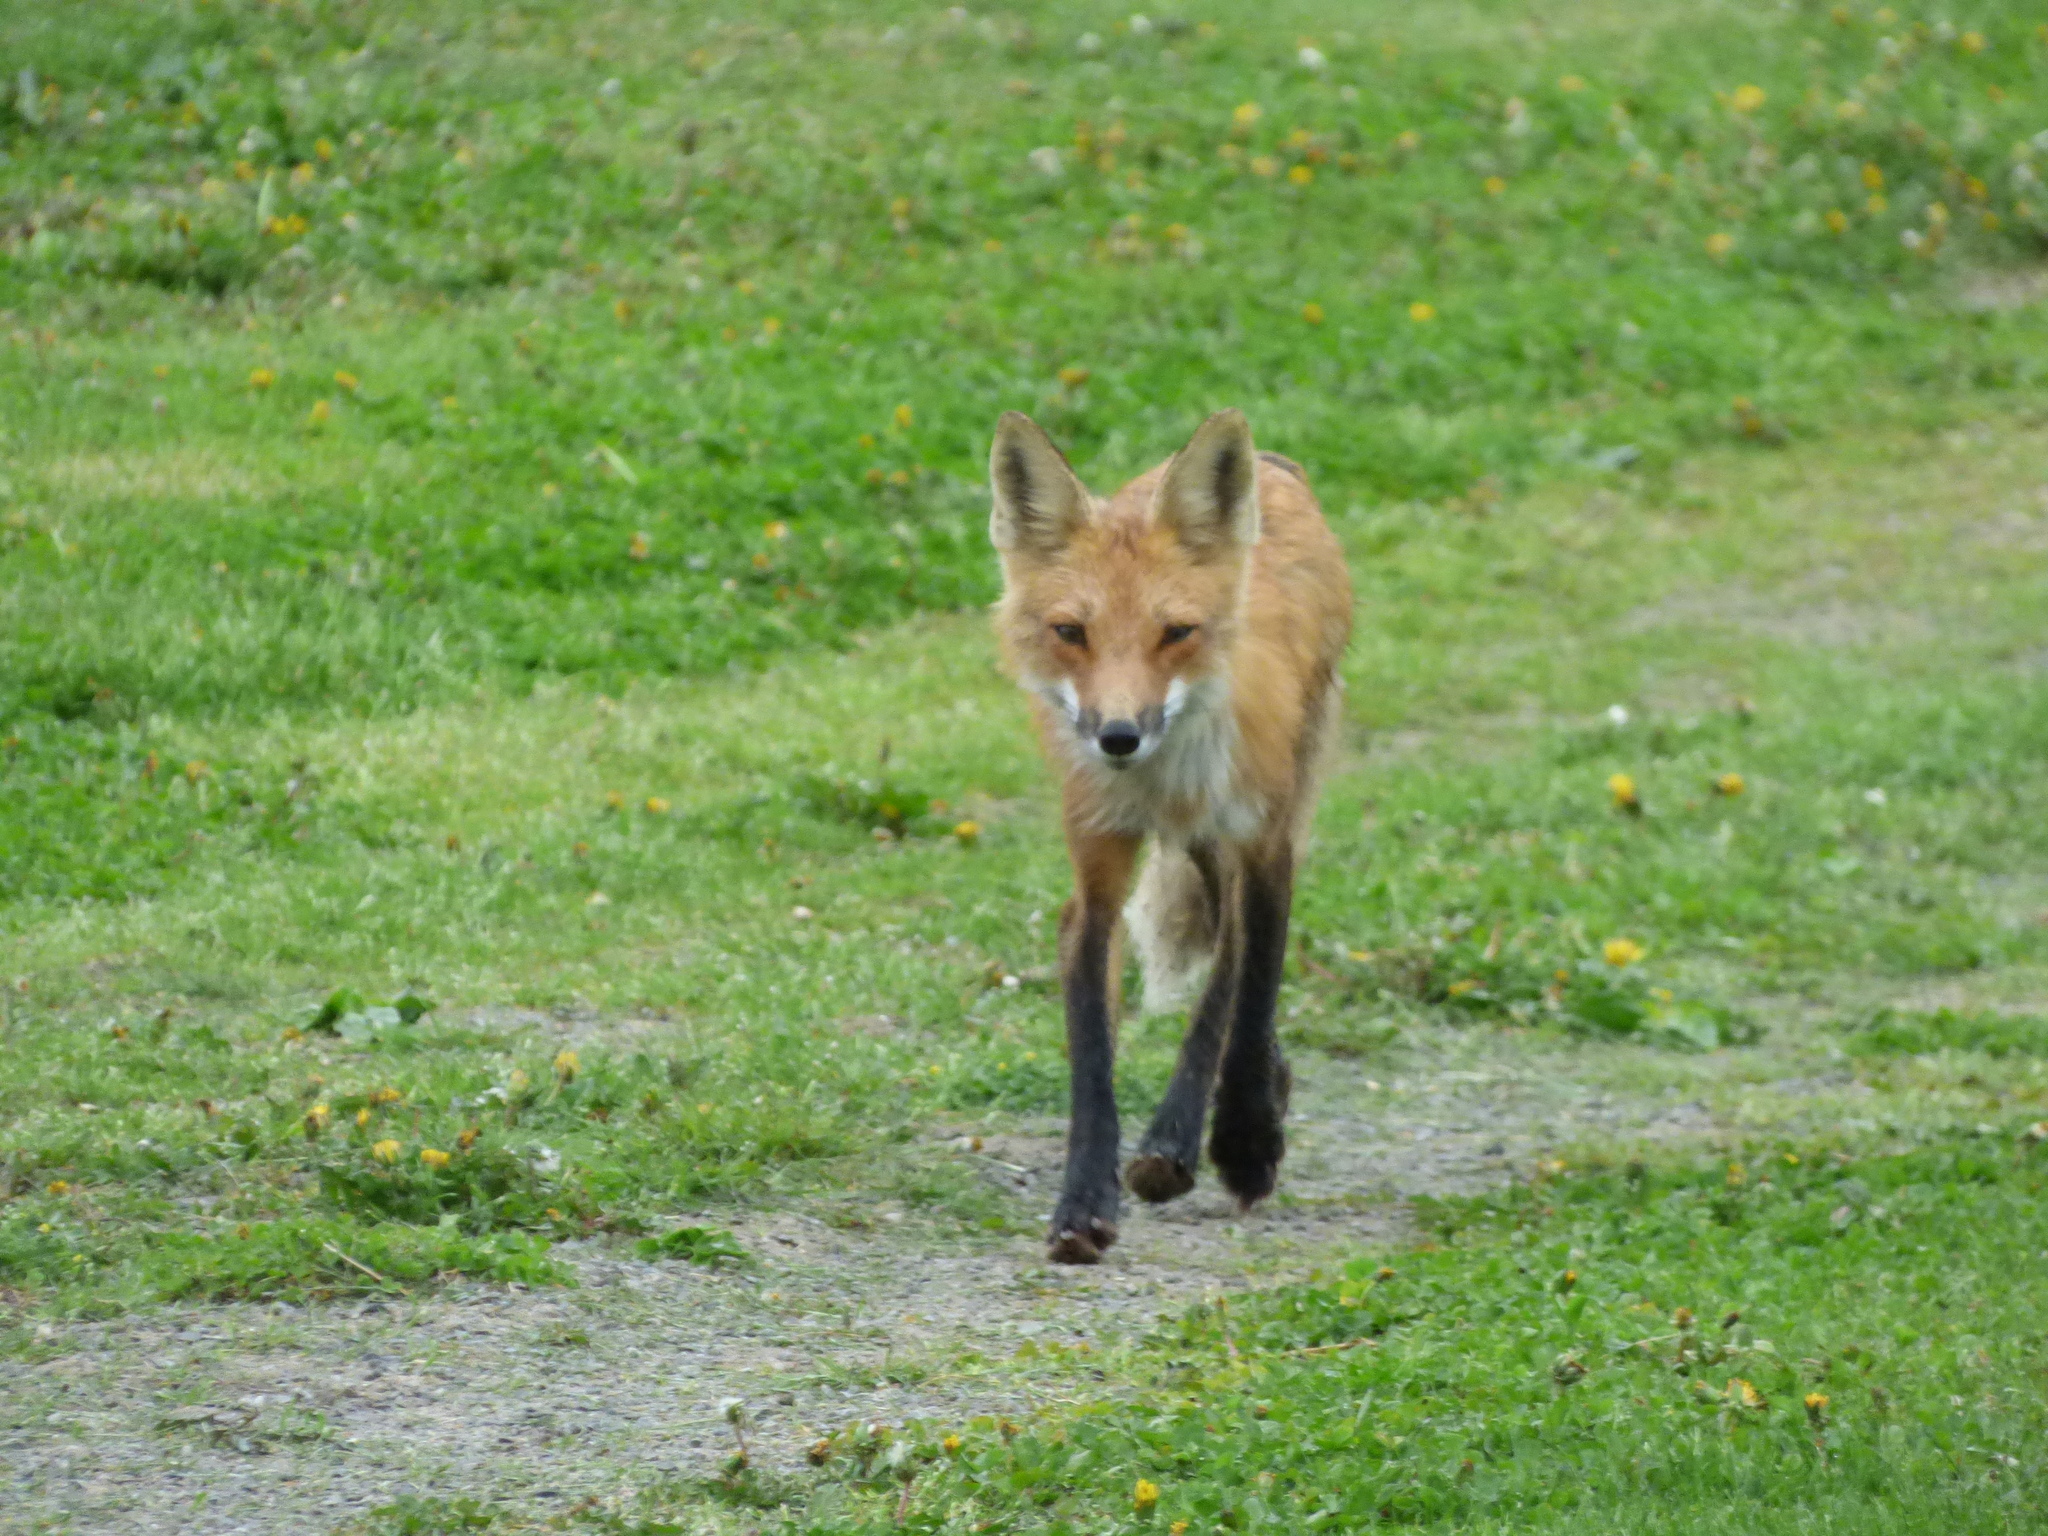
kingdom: Animalia
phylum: Chordata
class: Mammalia
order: Carnivora
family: Canidae
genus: Vulpes
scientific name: Vulpes vulpes
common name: Red fox
